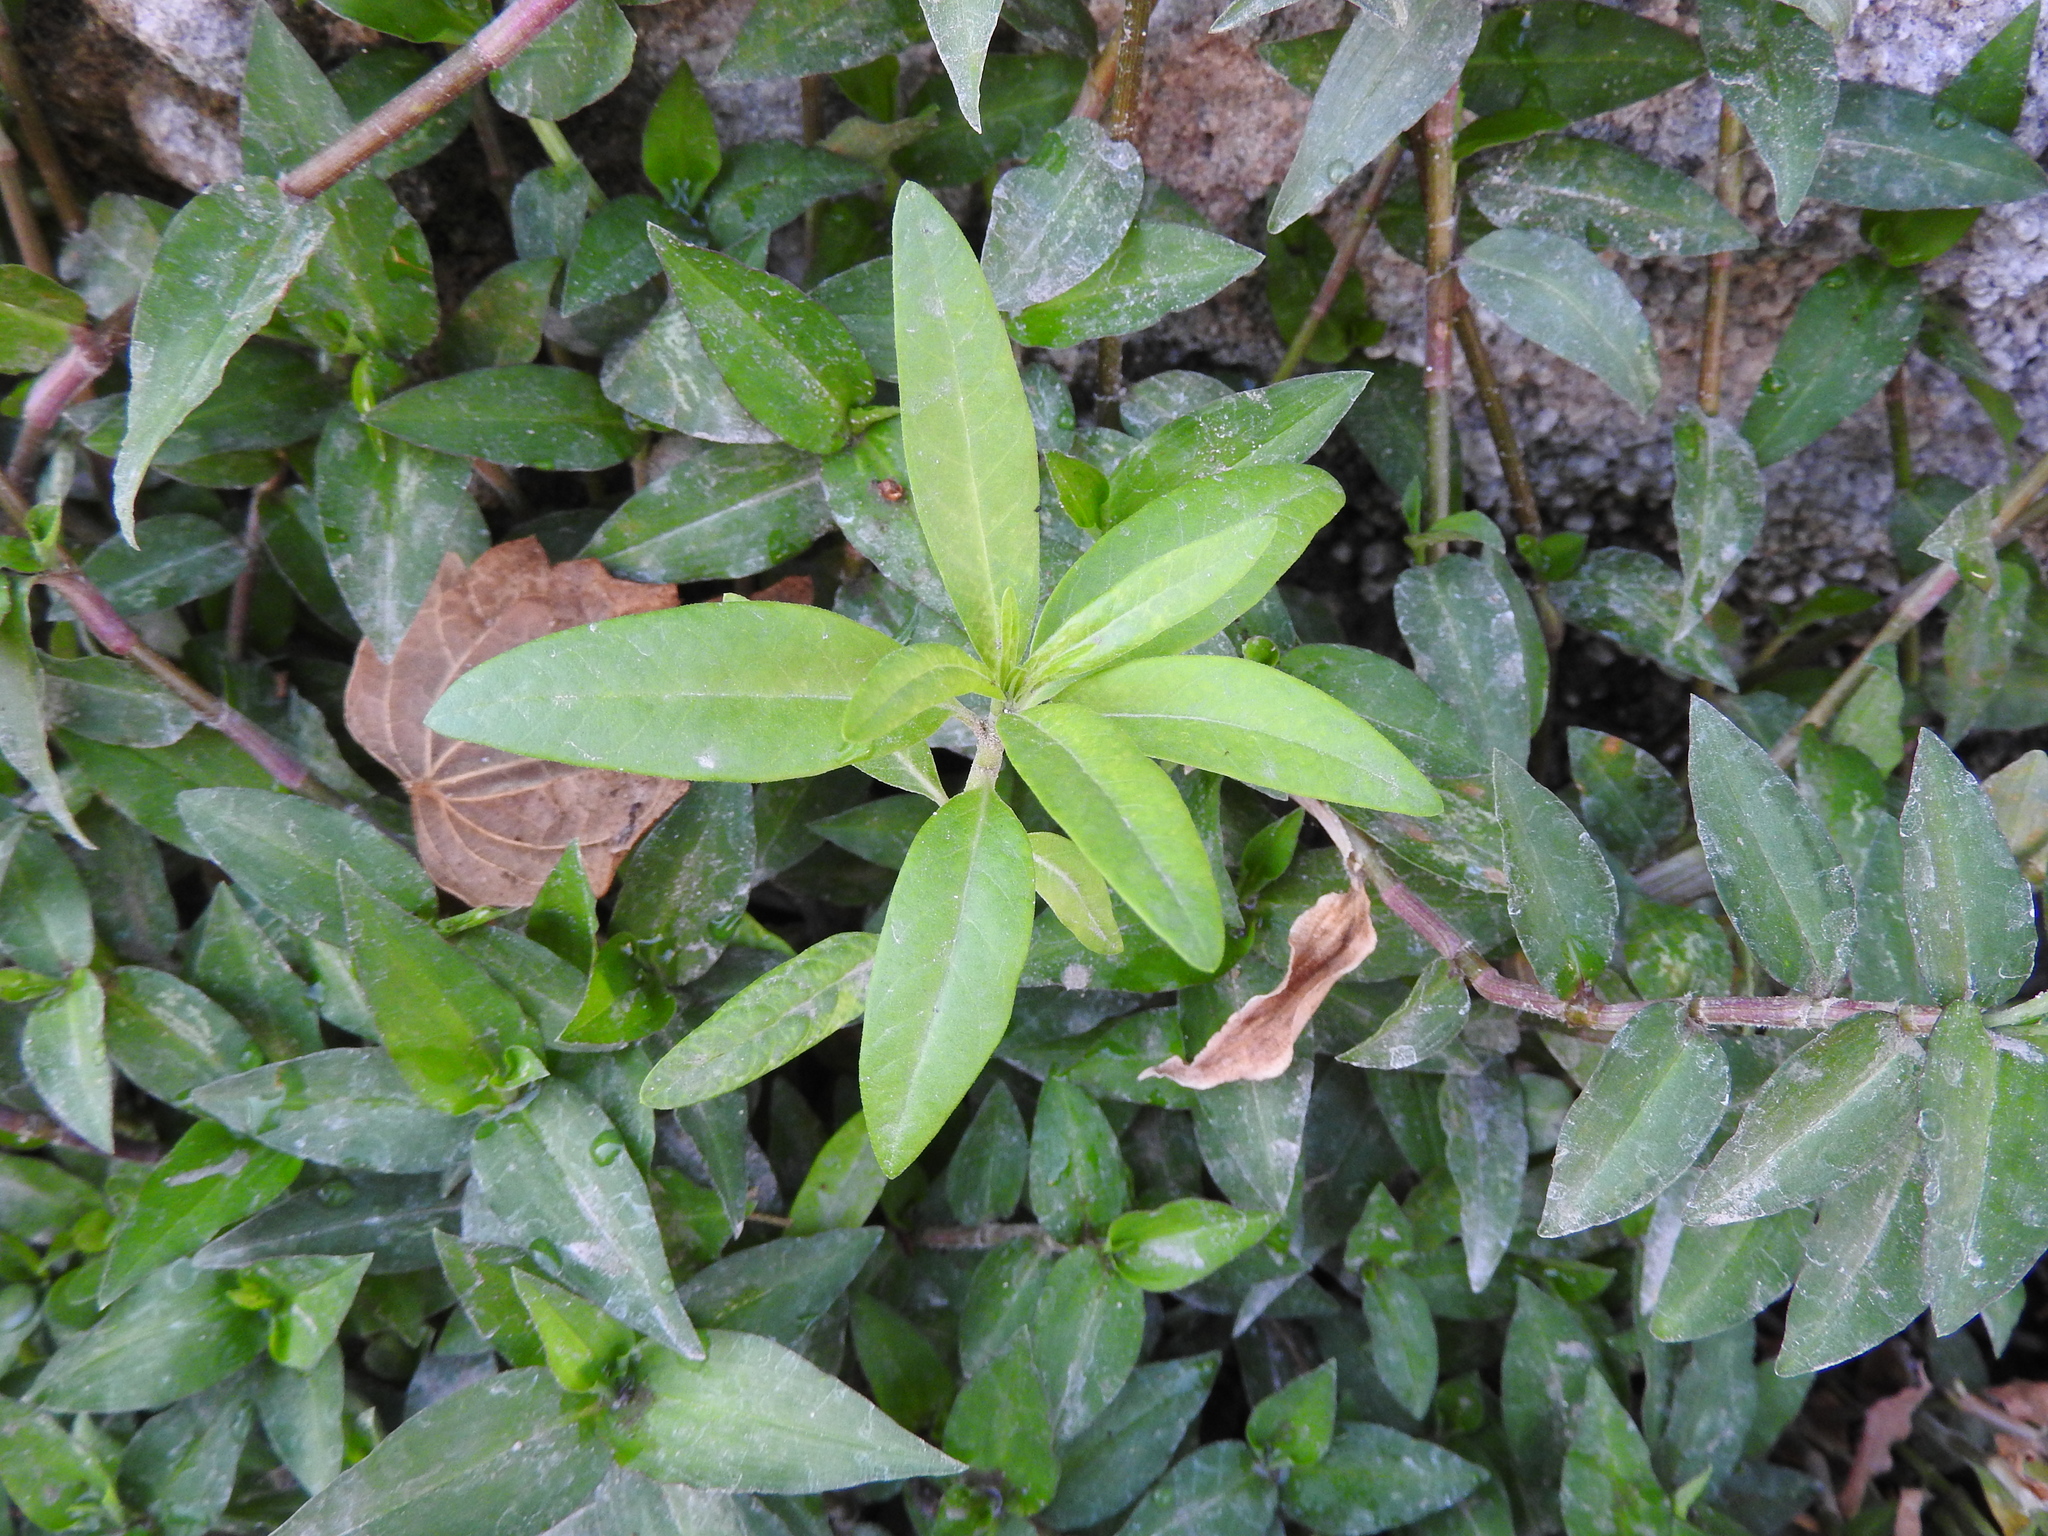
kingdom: Plantae
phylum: Tracheophyta
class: Magnoliopsida
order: Gentianales
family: Apocynaceae
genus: Asclepias
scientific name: Asclepias curassavica
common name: Bloodflower
